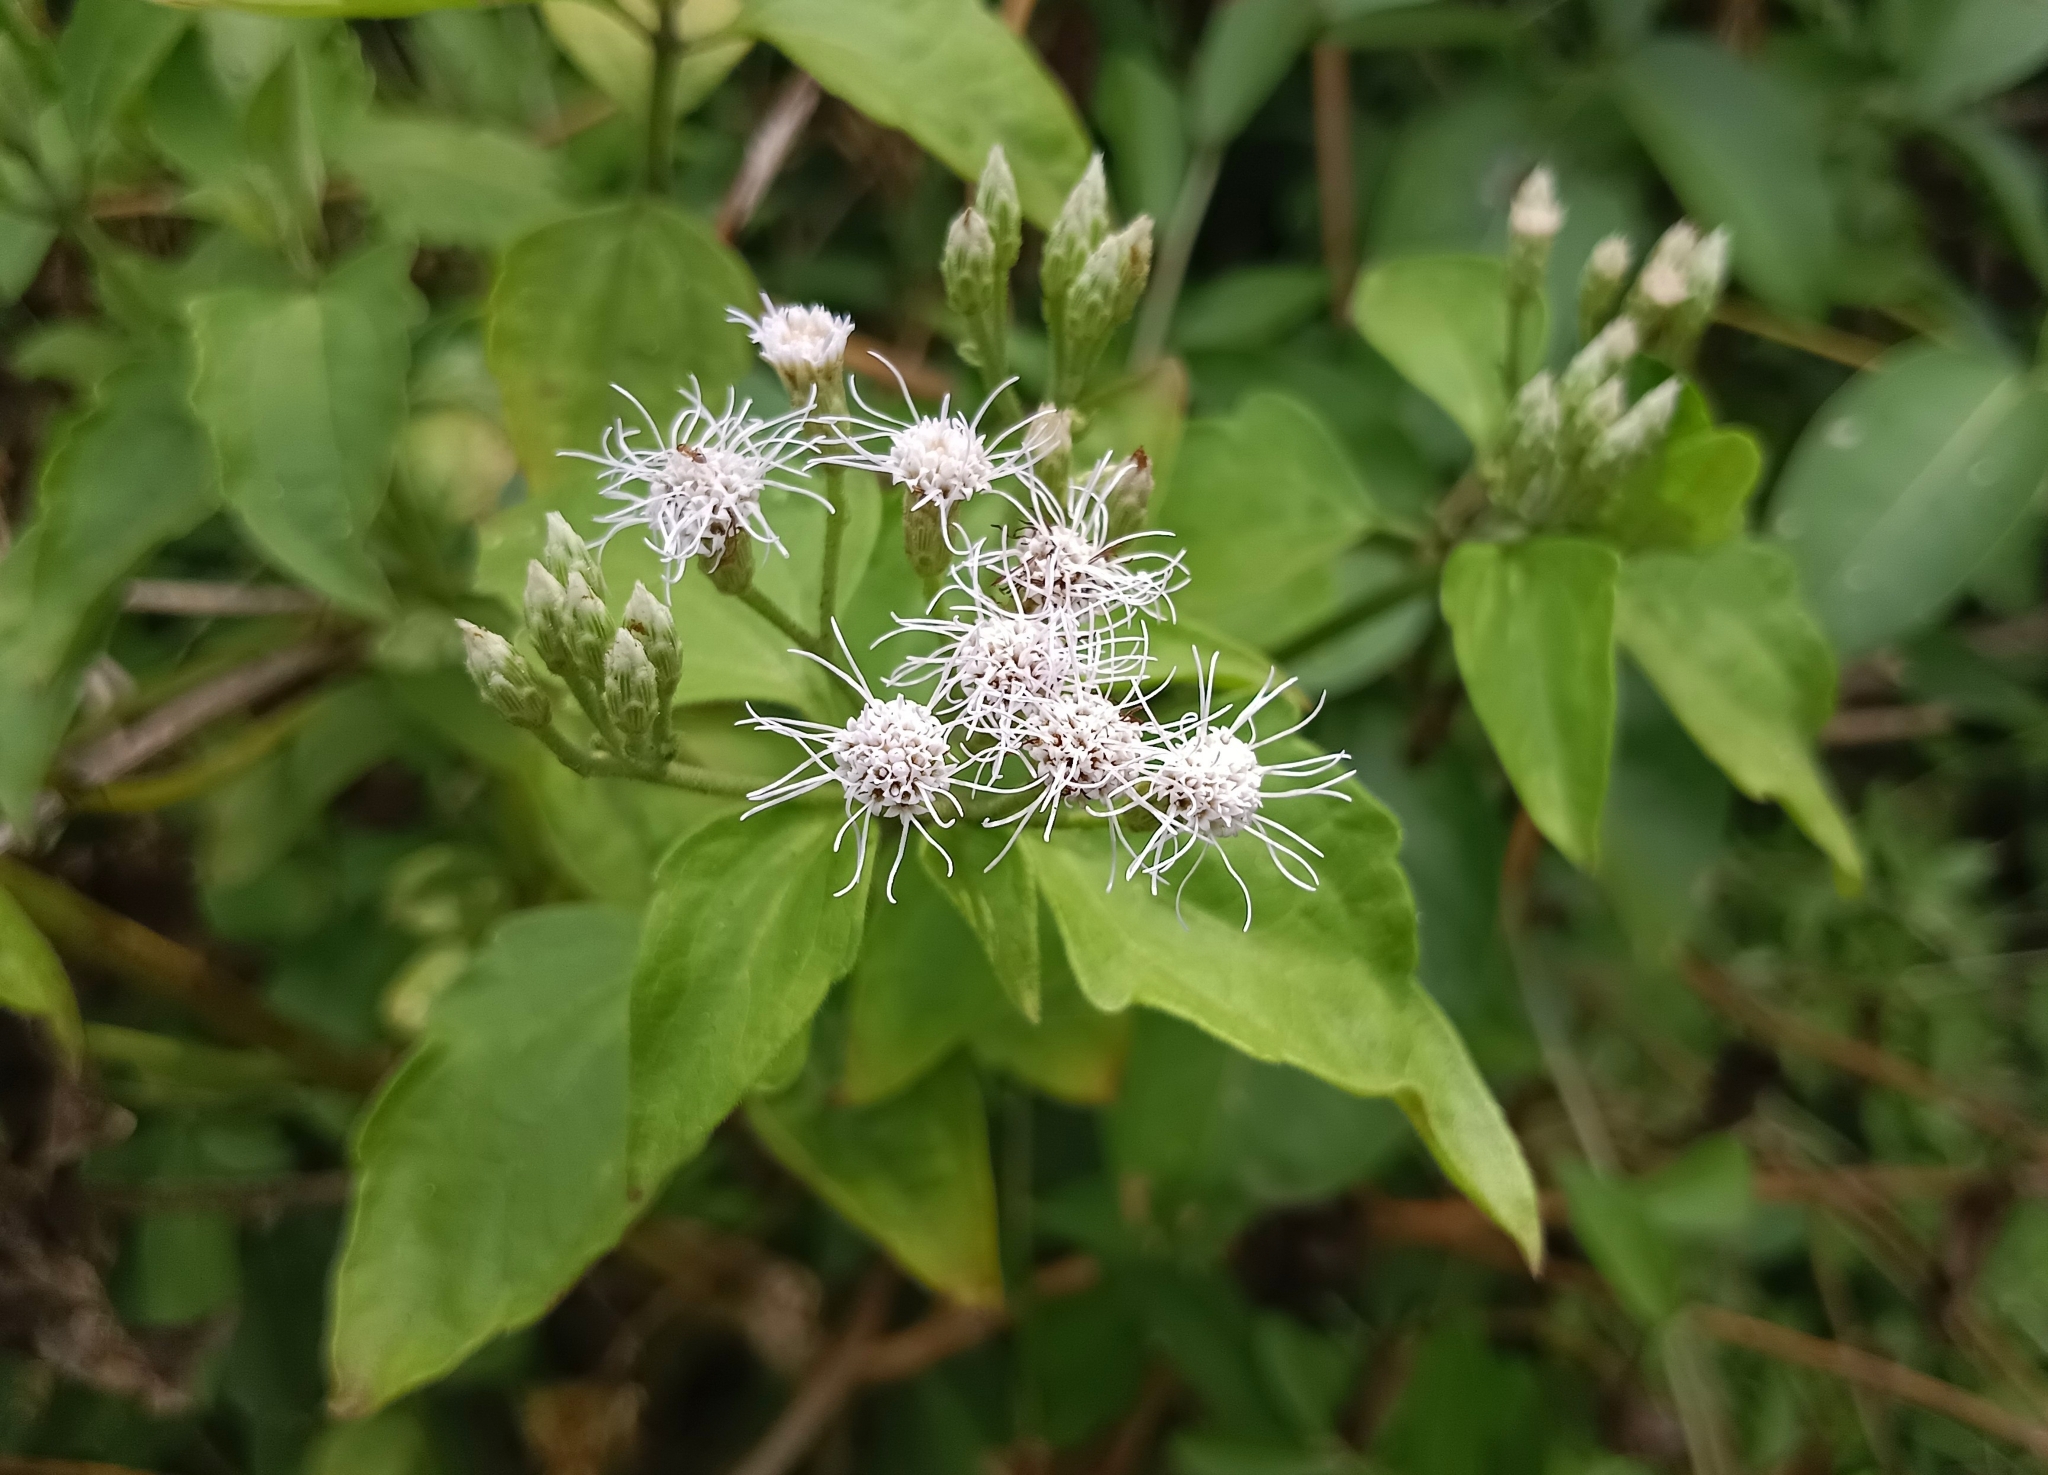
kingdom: Plantae
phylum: Tracheophyta
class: Magnoliopsida
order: Asterales
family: Asteraceae
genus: Chromolaena
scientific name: Chromolaena odorata
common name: Siamweed
